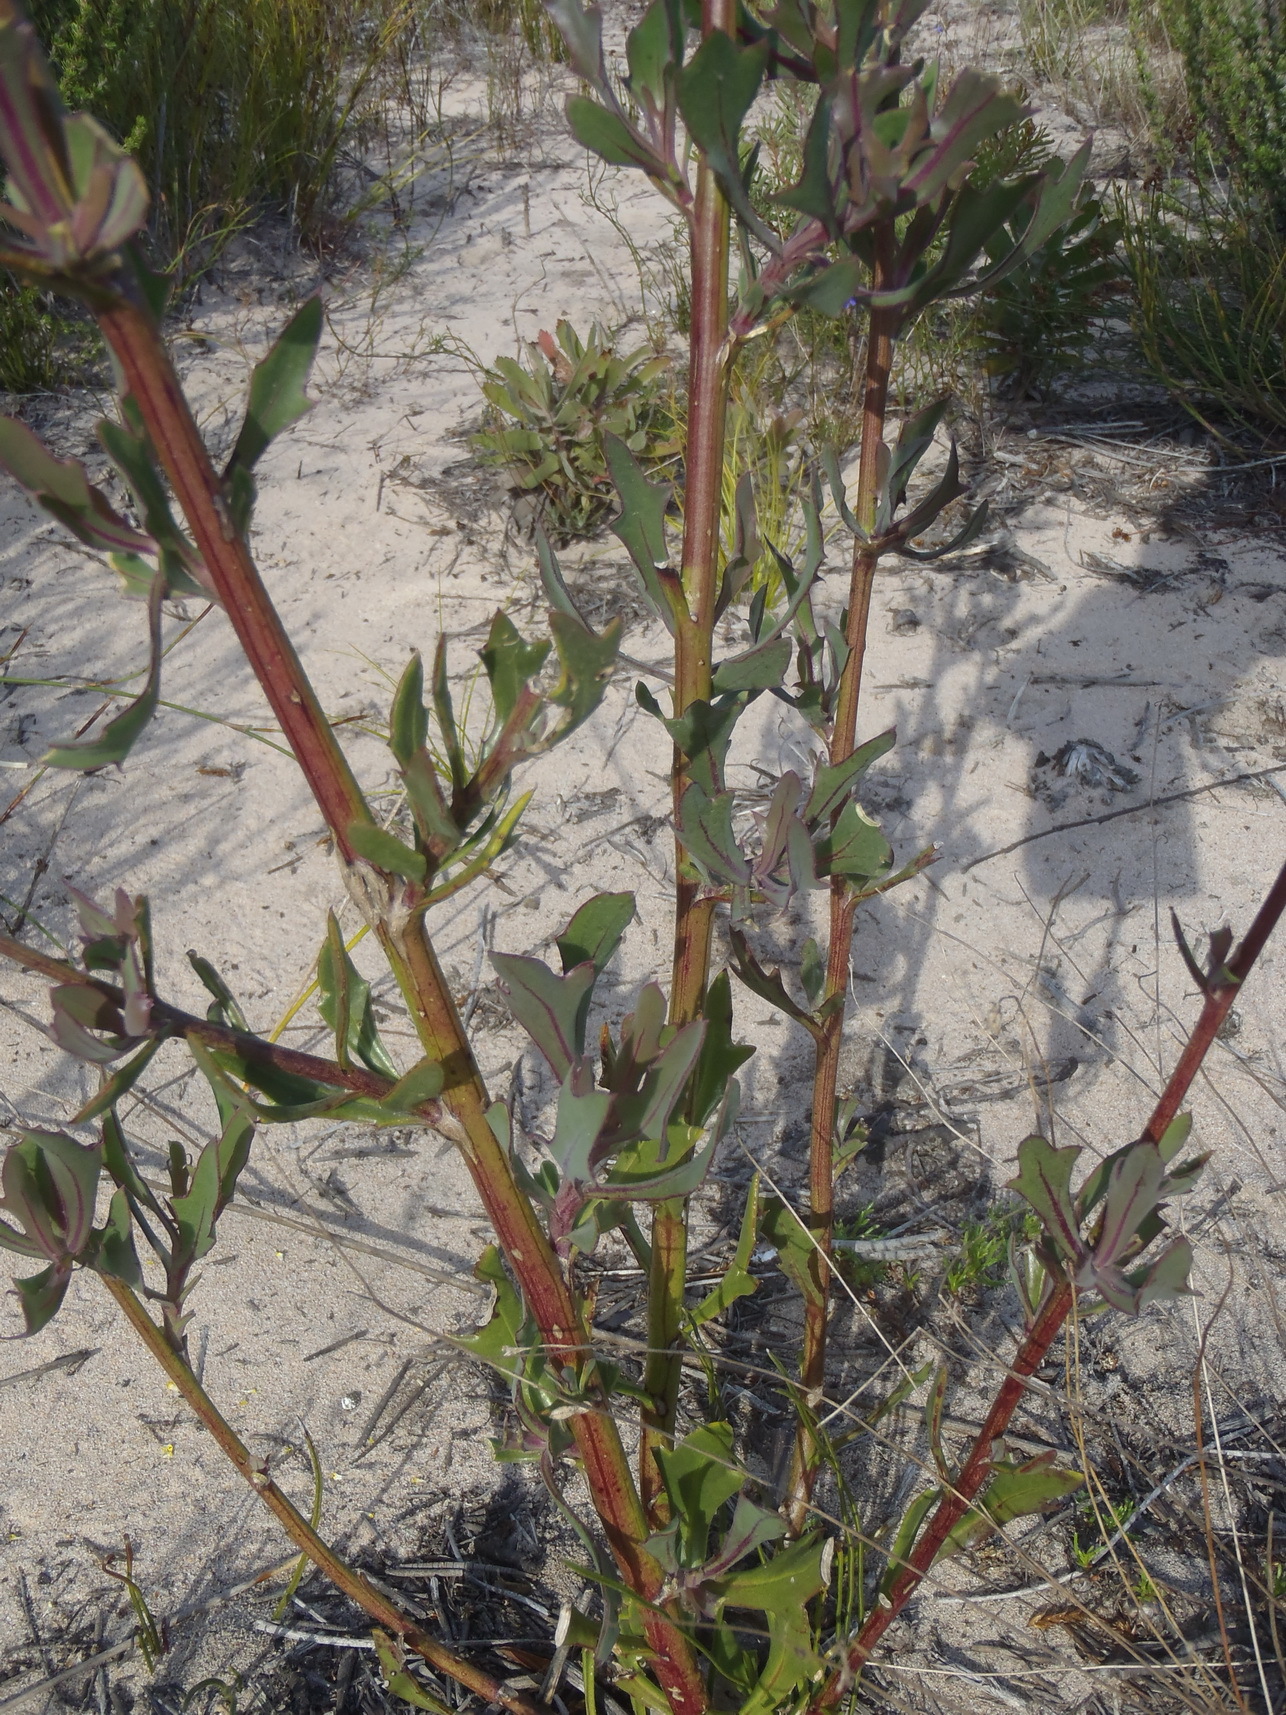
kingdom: Plantae
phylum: Tracheophyta
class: Magnoliopsida
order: Asterales
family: Asteraceae
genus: Othonna
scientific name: Othonna quinquedentata
